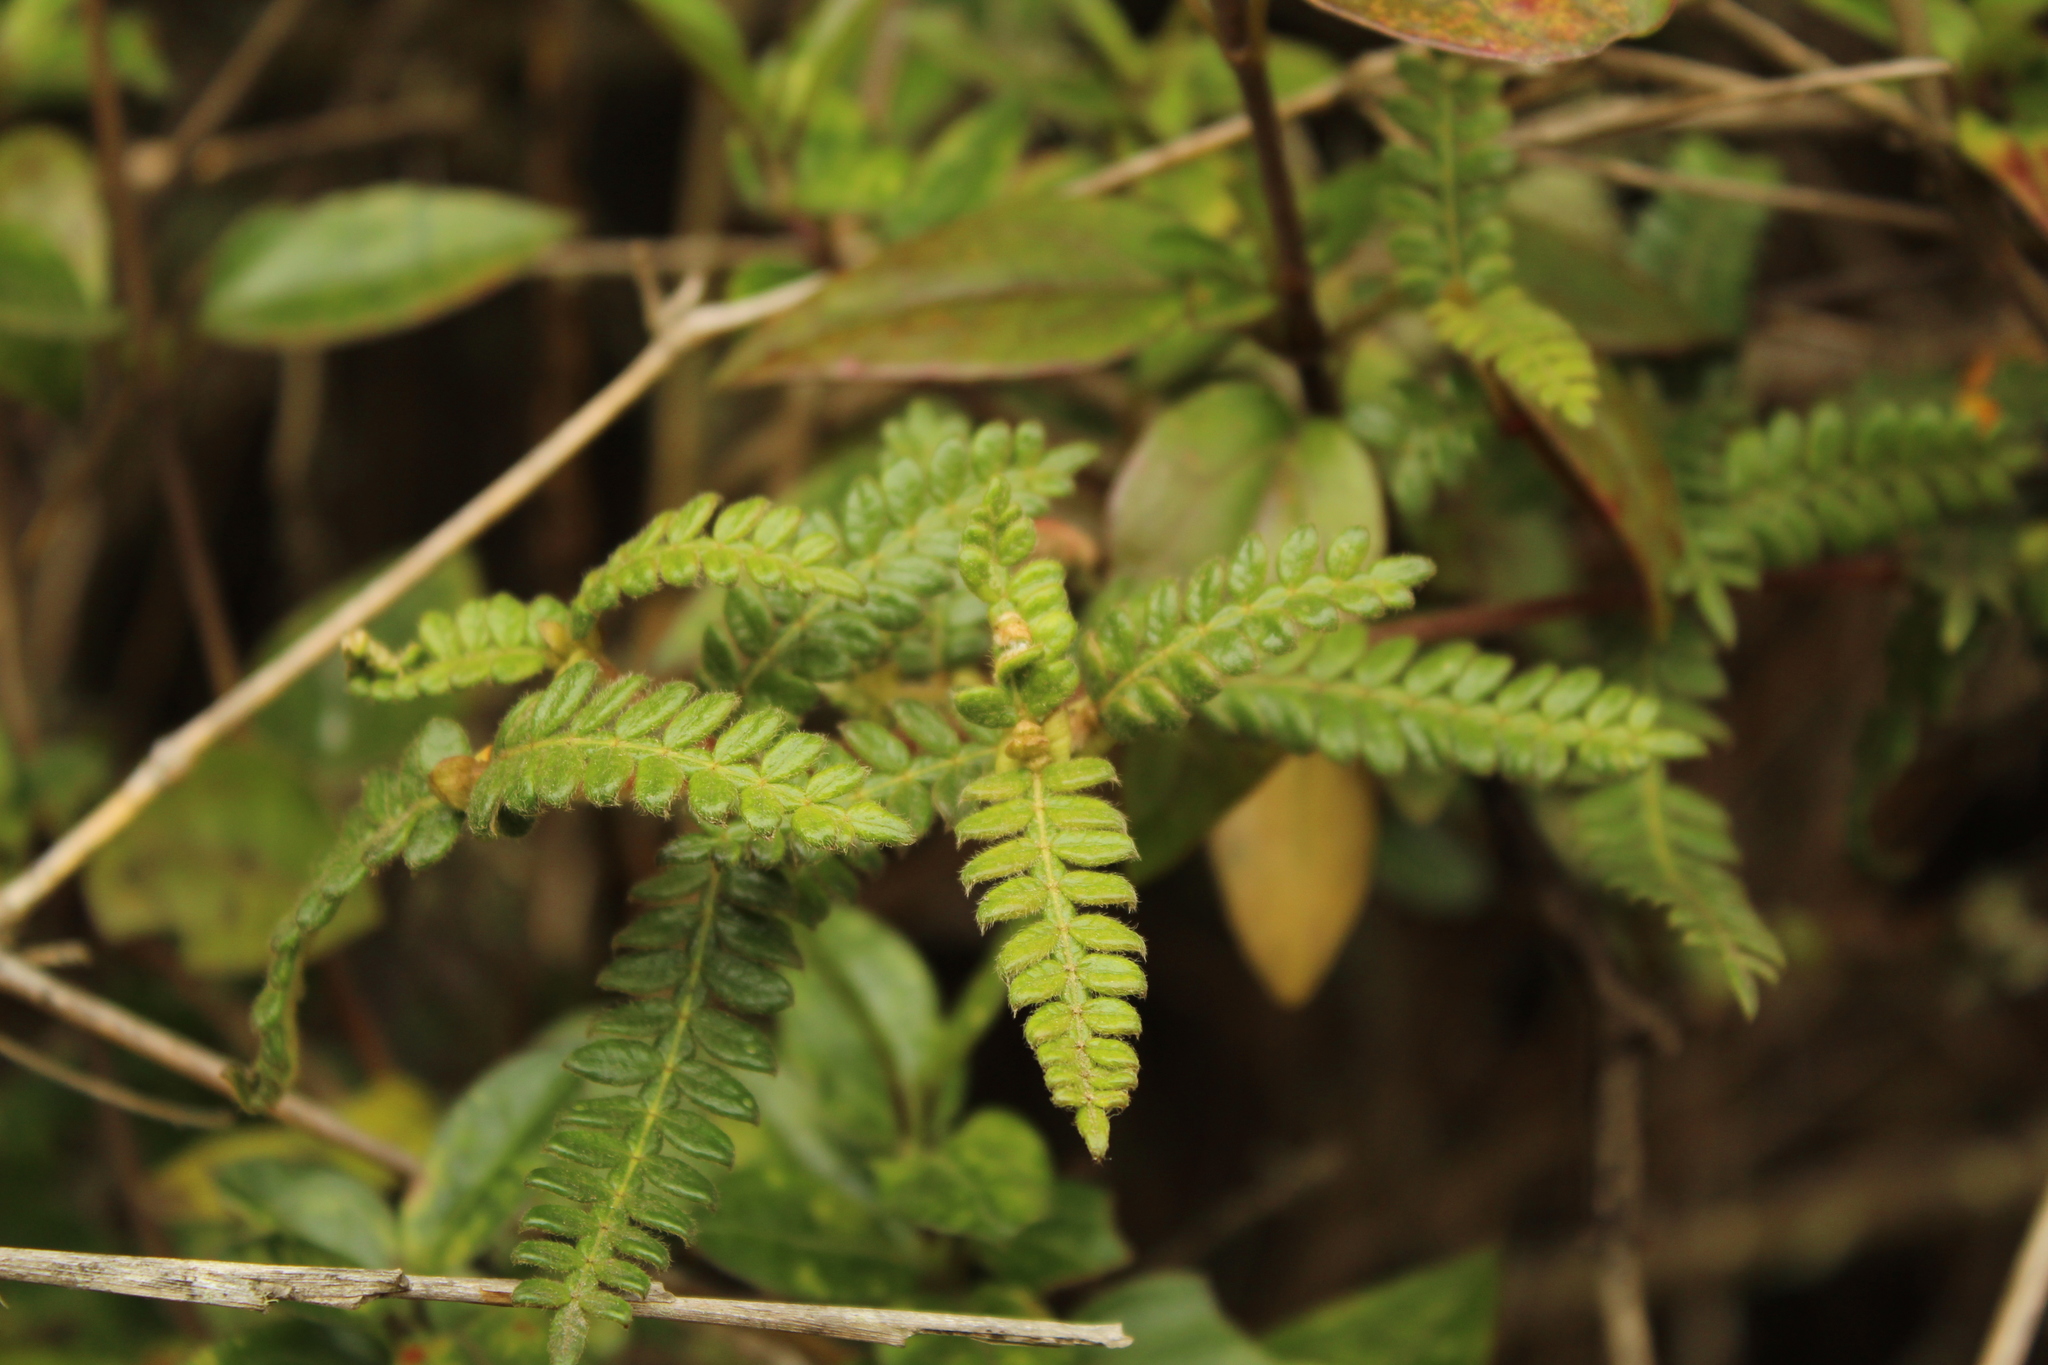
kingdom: Plantae
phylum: Tracheophyta
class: Magnoliopsida
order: Oxalidales
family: Cunoniaceae
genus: Weinmannia
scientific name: Weinmannia tomentosa
